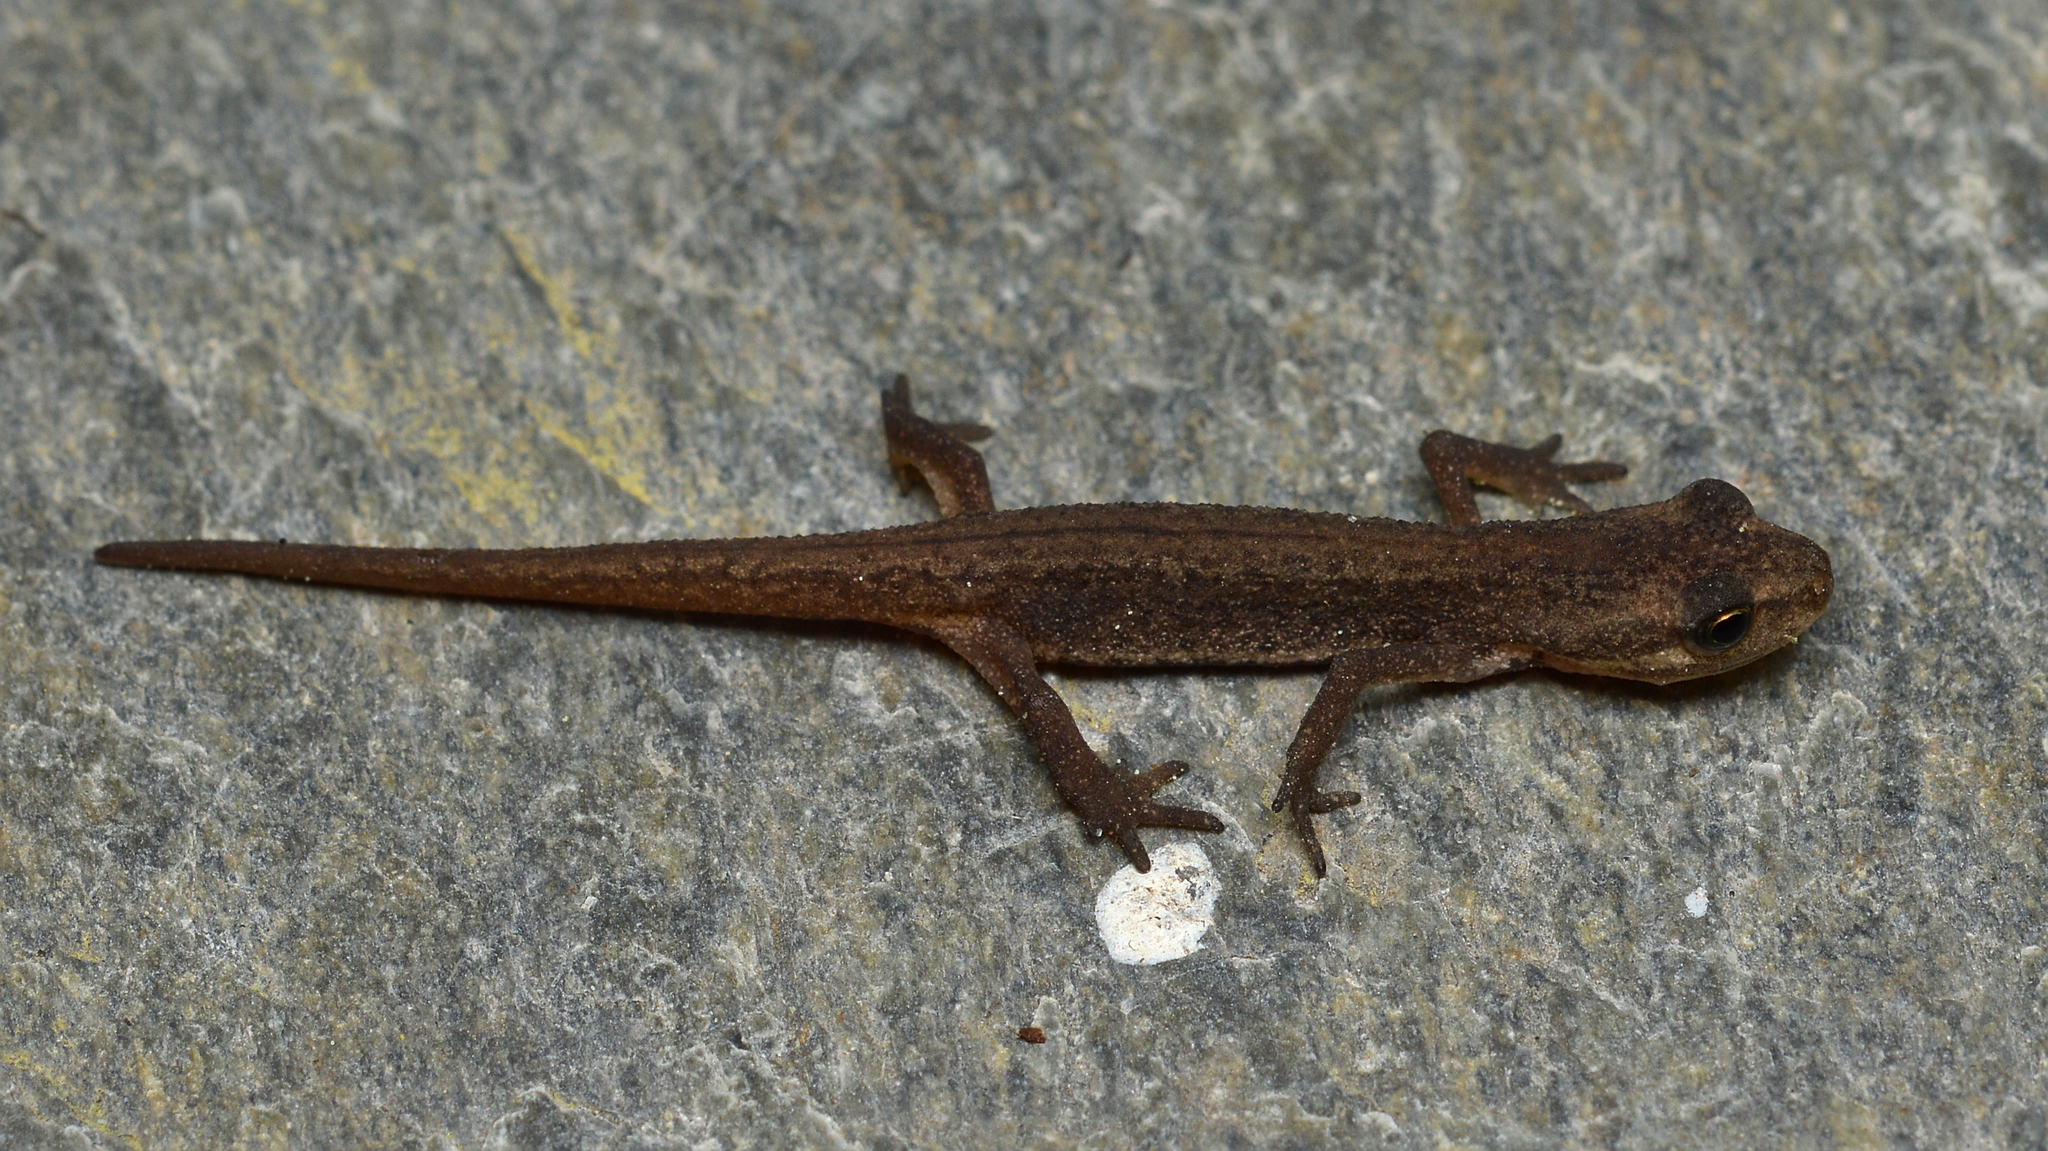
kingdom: Animalia
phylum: Chordata
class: Amphibia
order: Caudata
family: Salamandridae
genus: Lissotriton
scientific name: Lissotriton vulgaris
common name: Smooth newt
